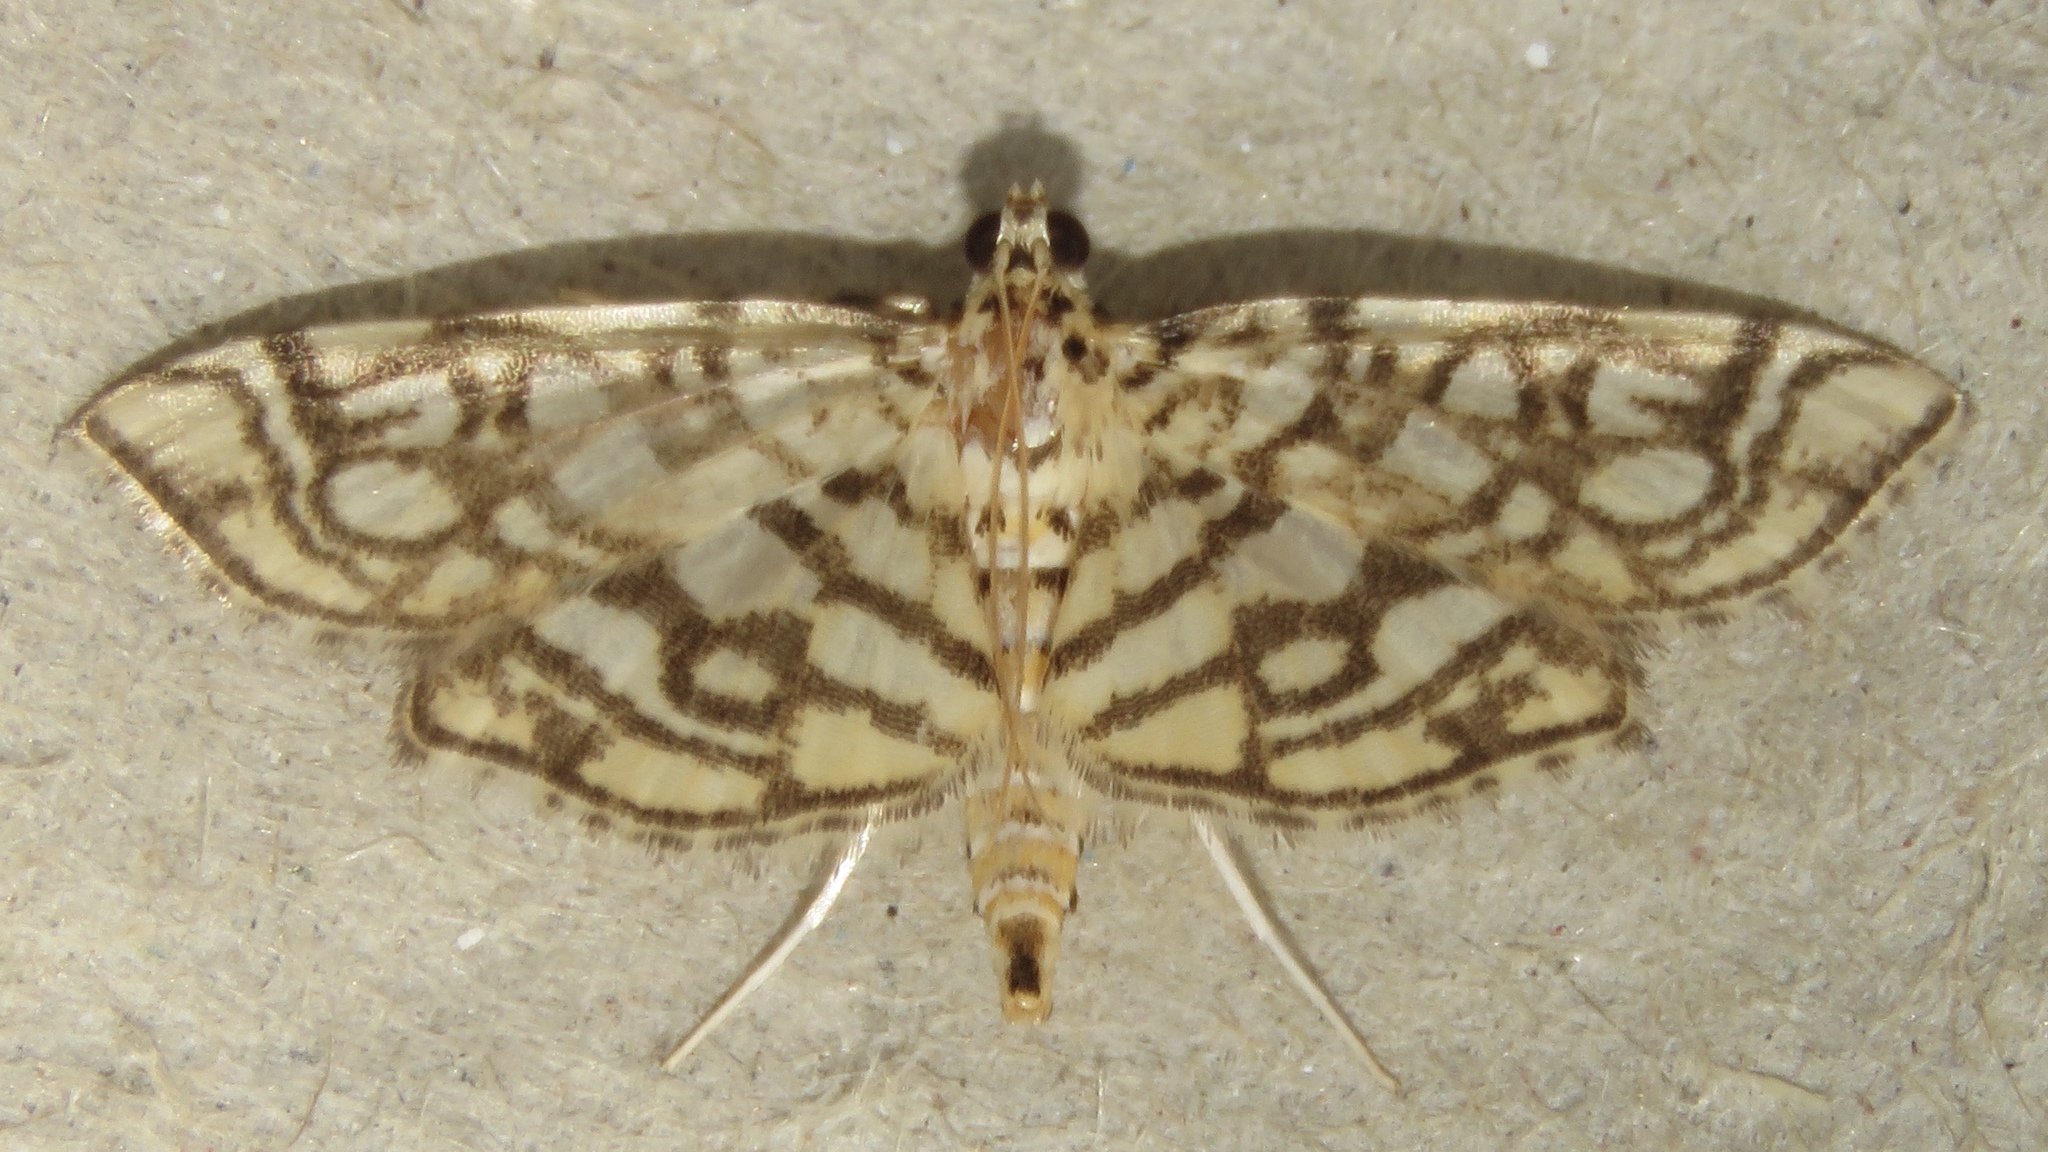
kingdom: Animalia
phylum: Arthropoda
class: Insecta
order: Lepidoptera
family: Crambidae
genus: Lygropia
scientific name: Lygropia rivulalis
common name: Bog lygropia moth
